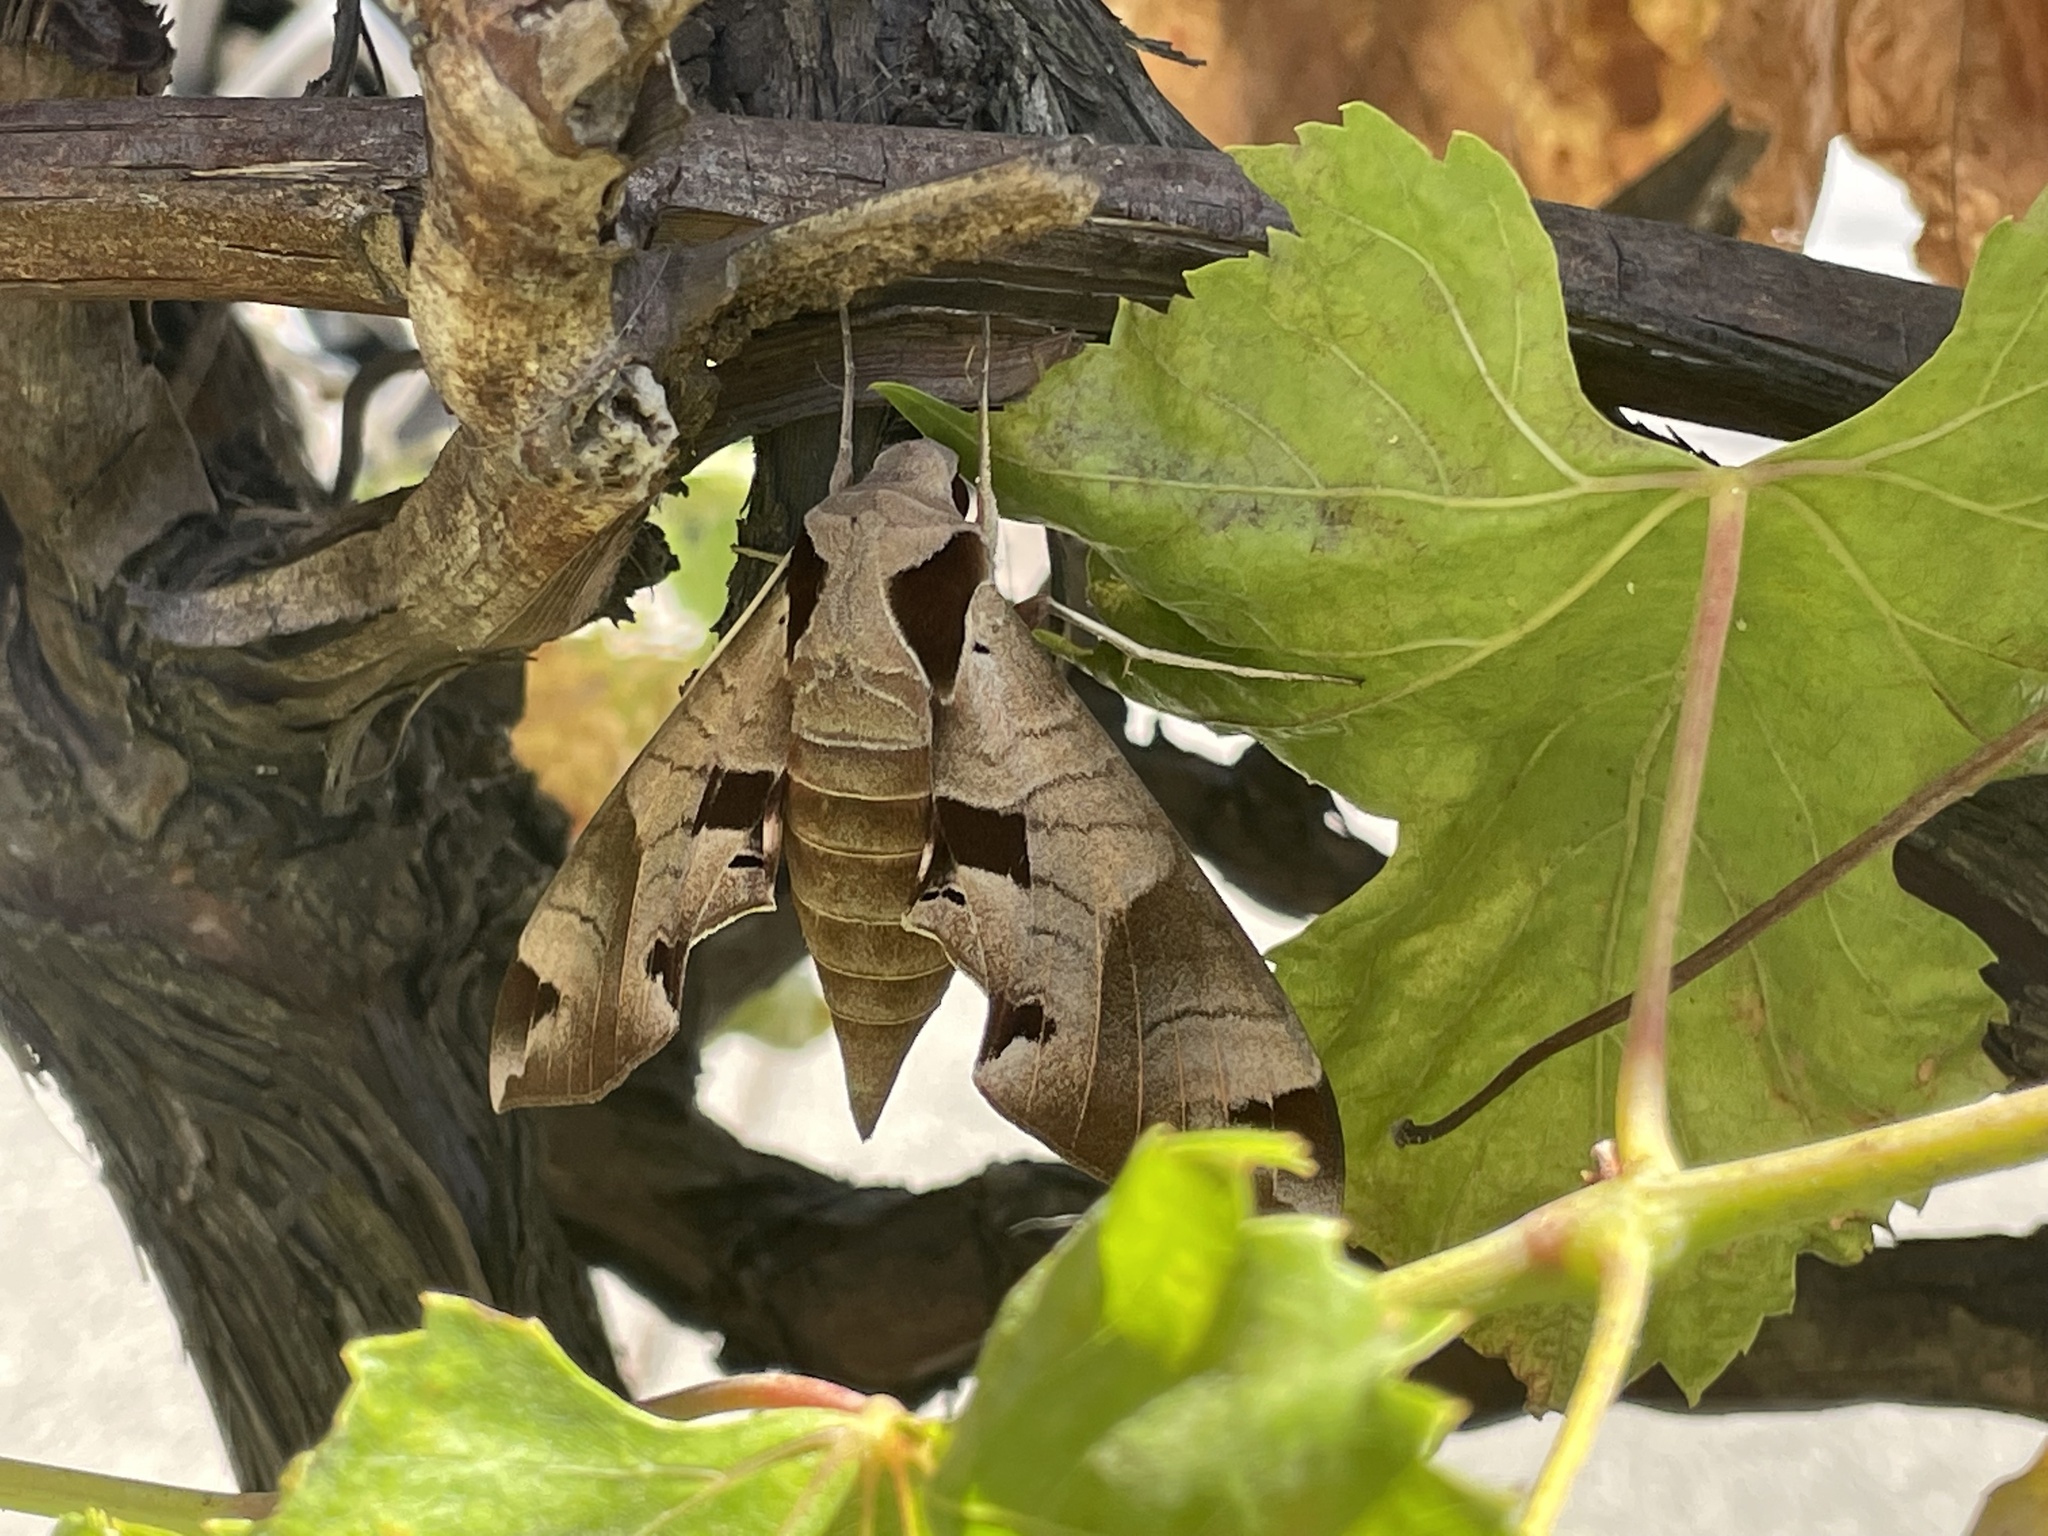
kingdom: Animalia
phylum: Arthropoda
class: Insecta
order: Lepidoptera
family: Sphingidae
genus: Eumorpha
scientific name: Eumorpha achemon
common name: Achemon sphinx
